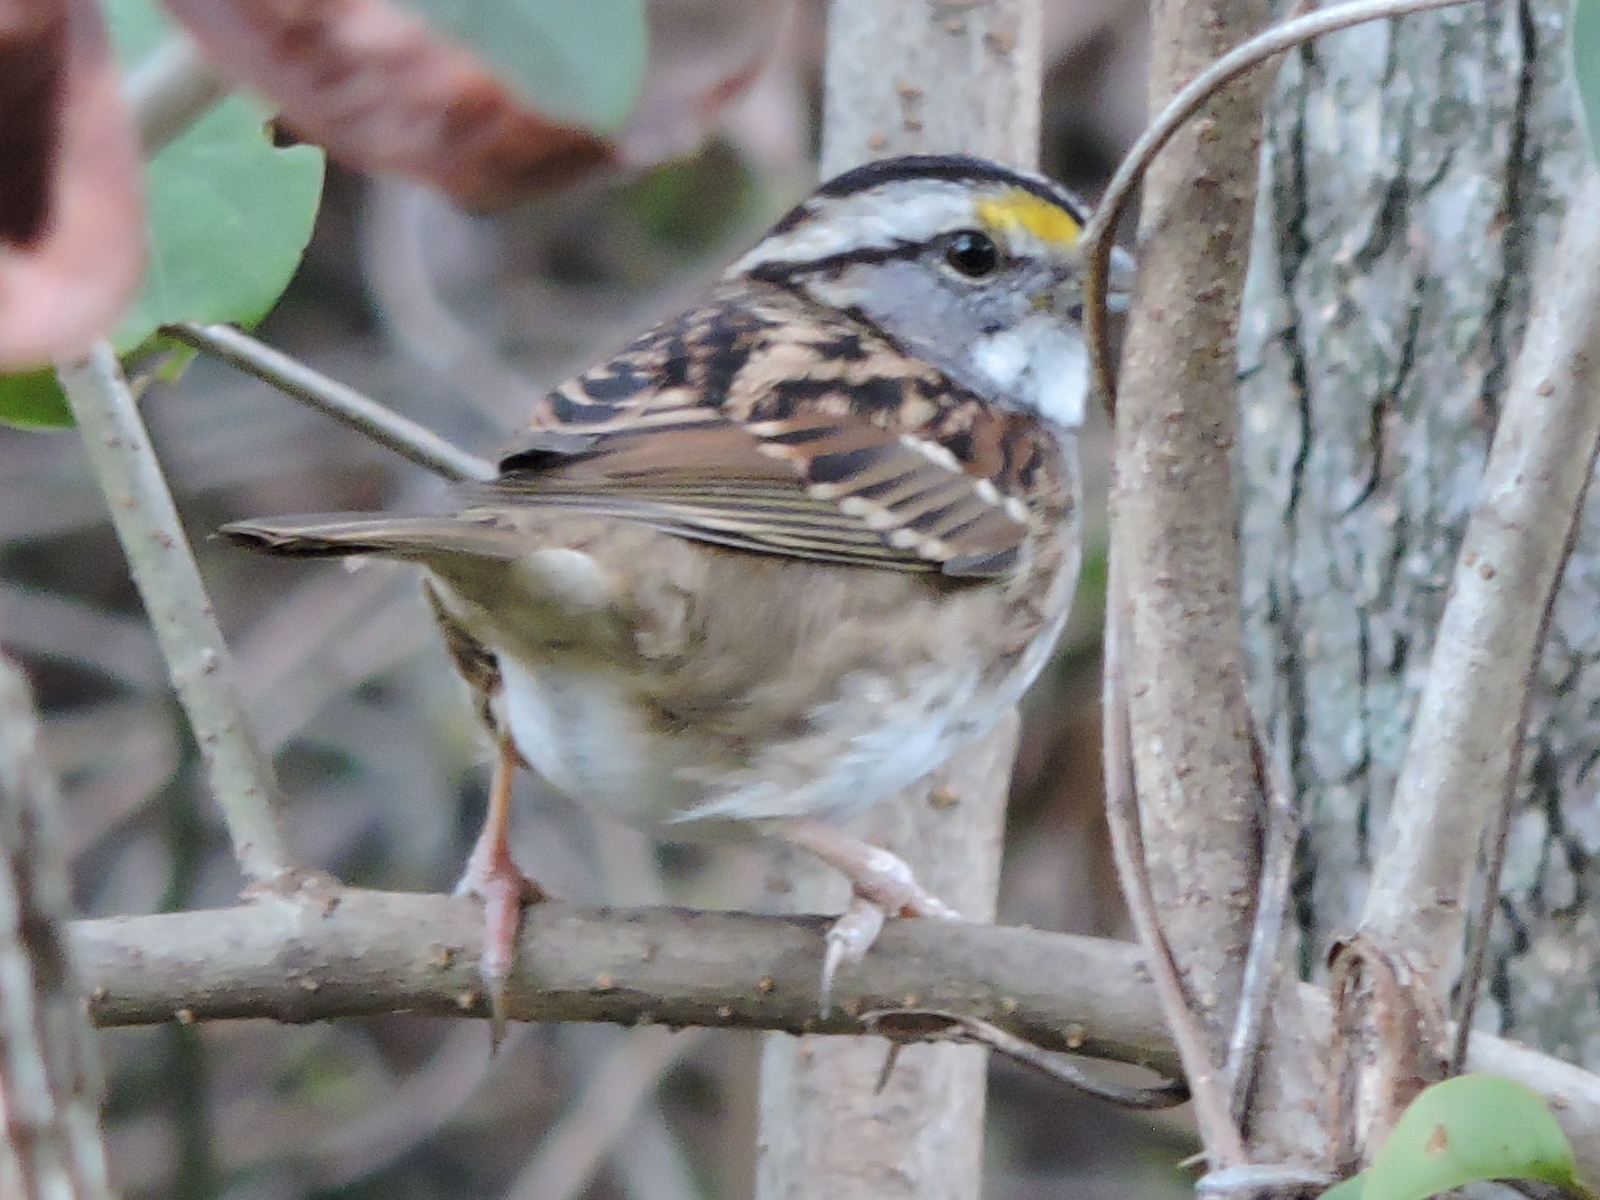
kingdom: Animalia
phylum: Chordata
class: Aves
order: Passeriformes
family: Passerellidae
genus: Zonotrichia
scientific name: Zonotrichia albicollis
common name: White-throated sparrow
